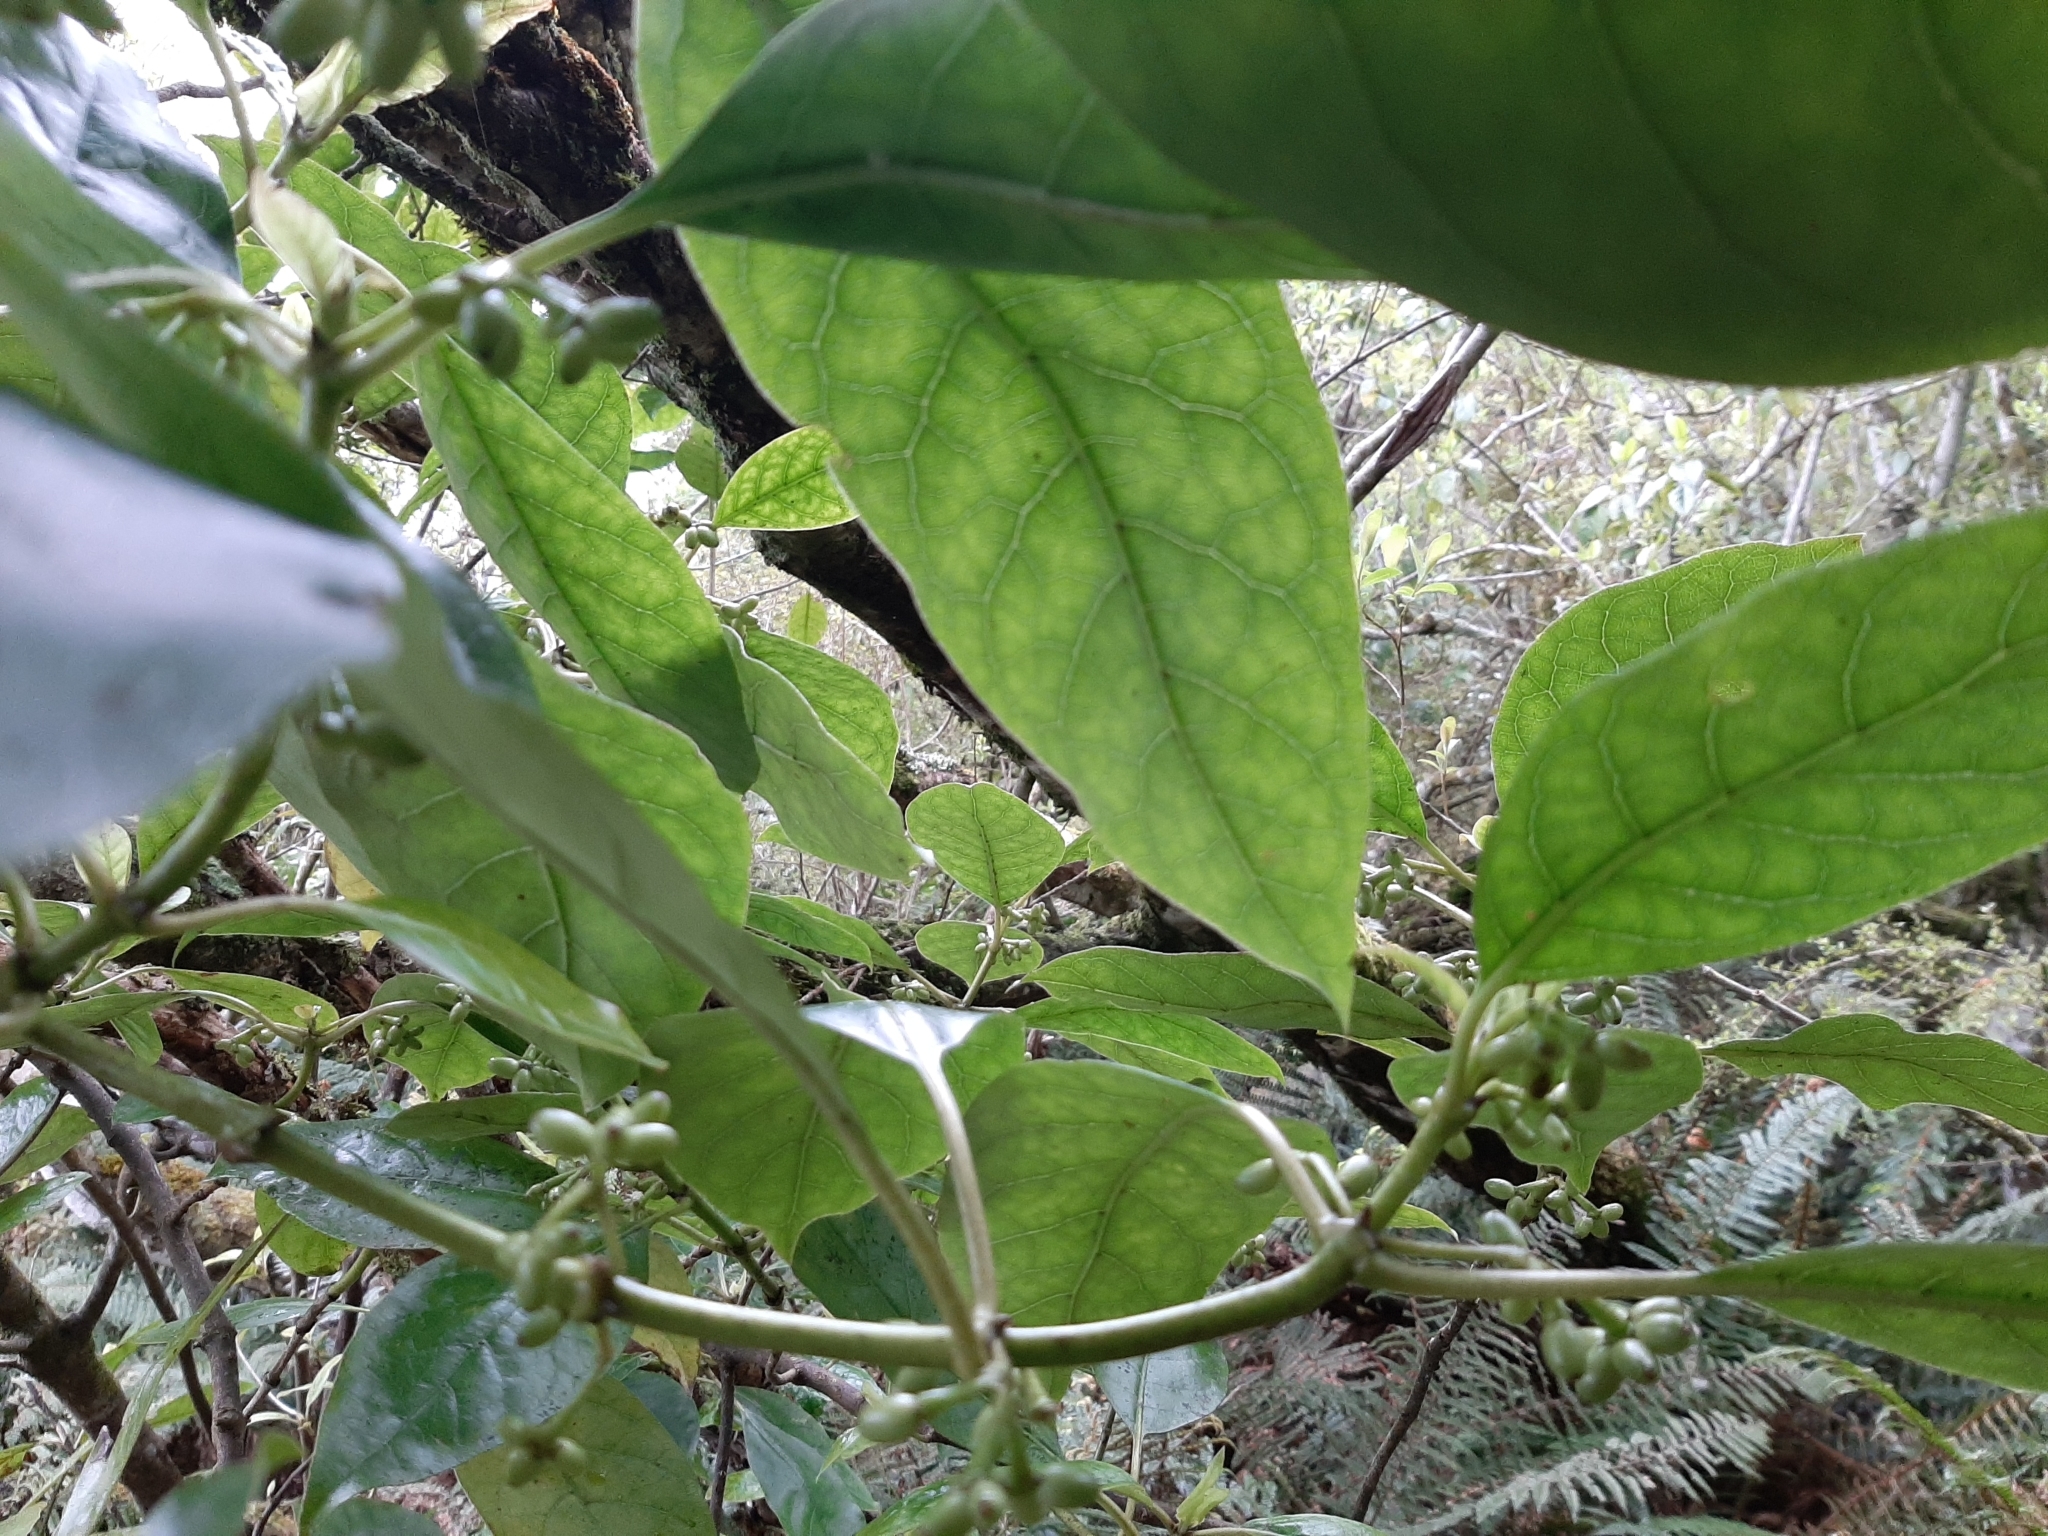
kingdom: Plantae
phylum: Tracheophyta
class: Magnoliopsida
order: Gentianales
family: Rubiaceae
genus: Coprosma
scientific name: Coprosma autumnalis
